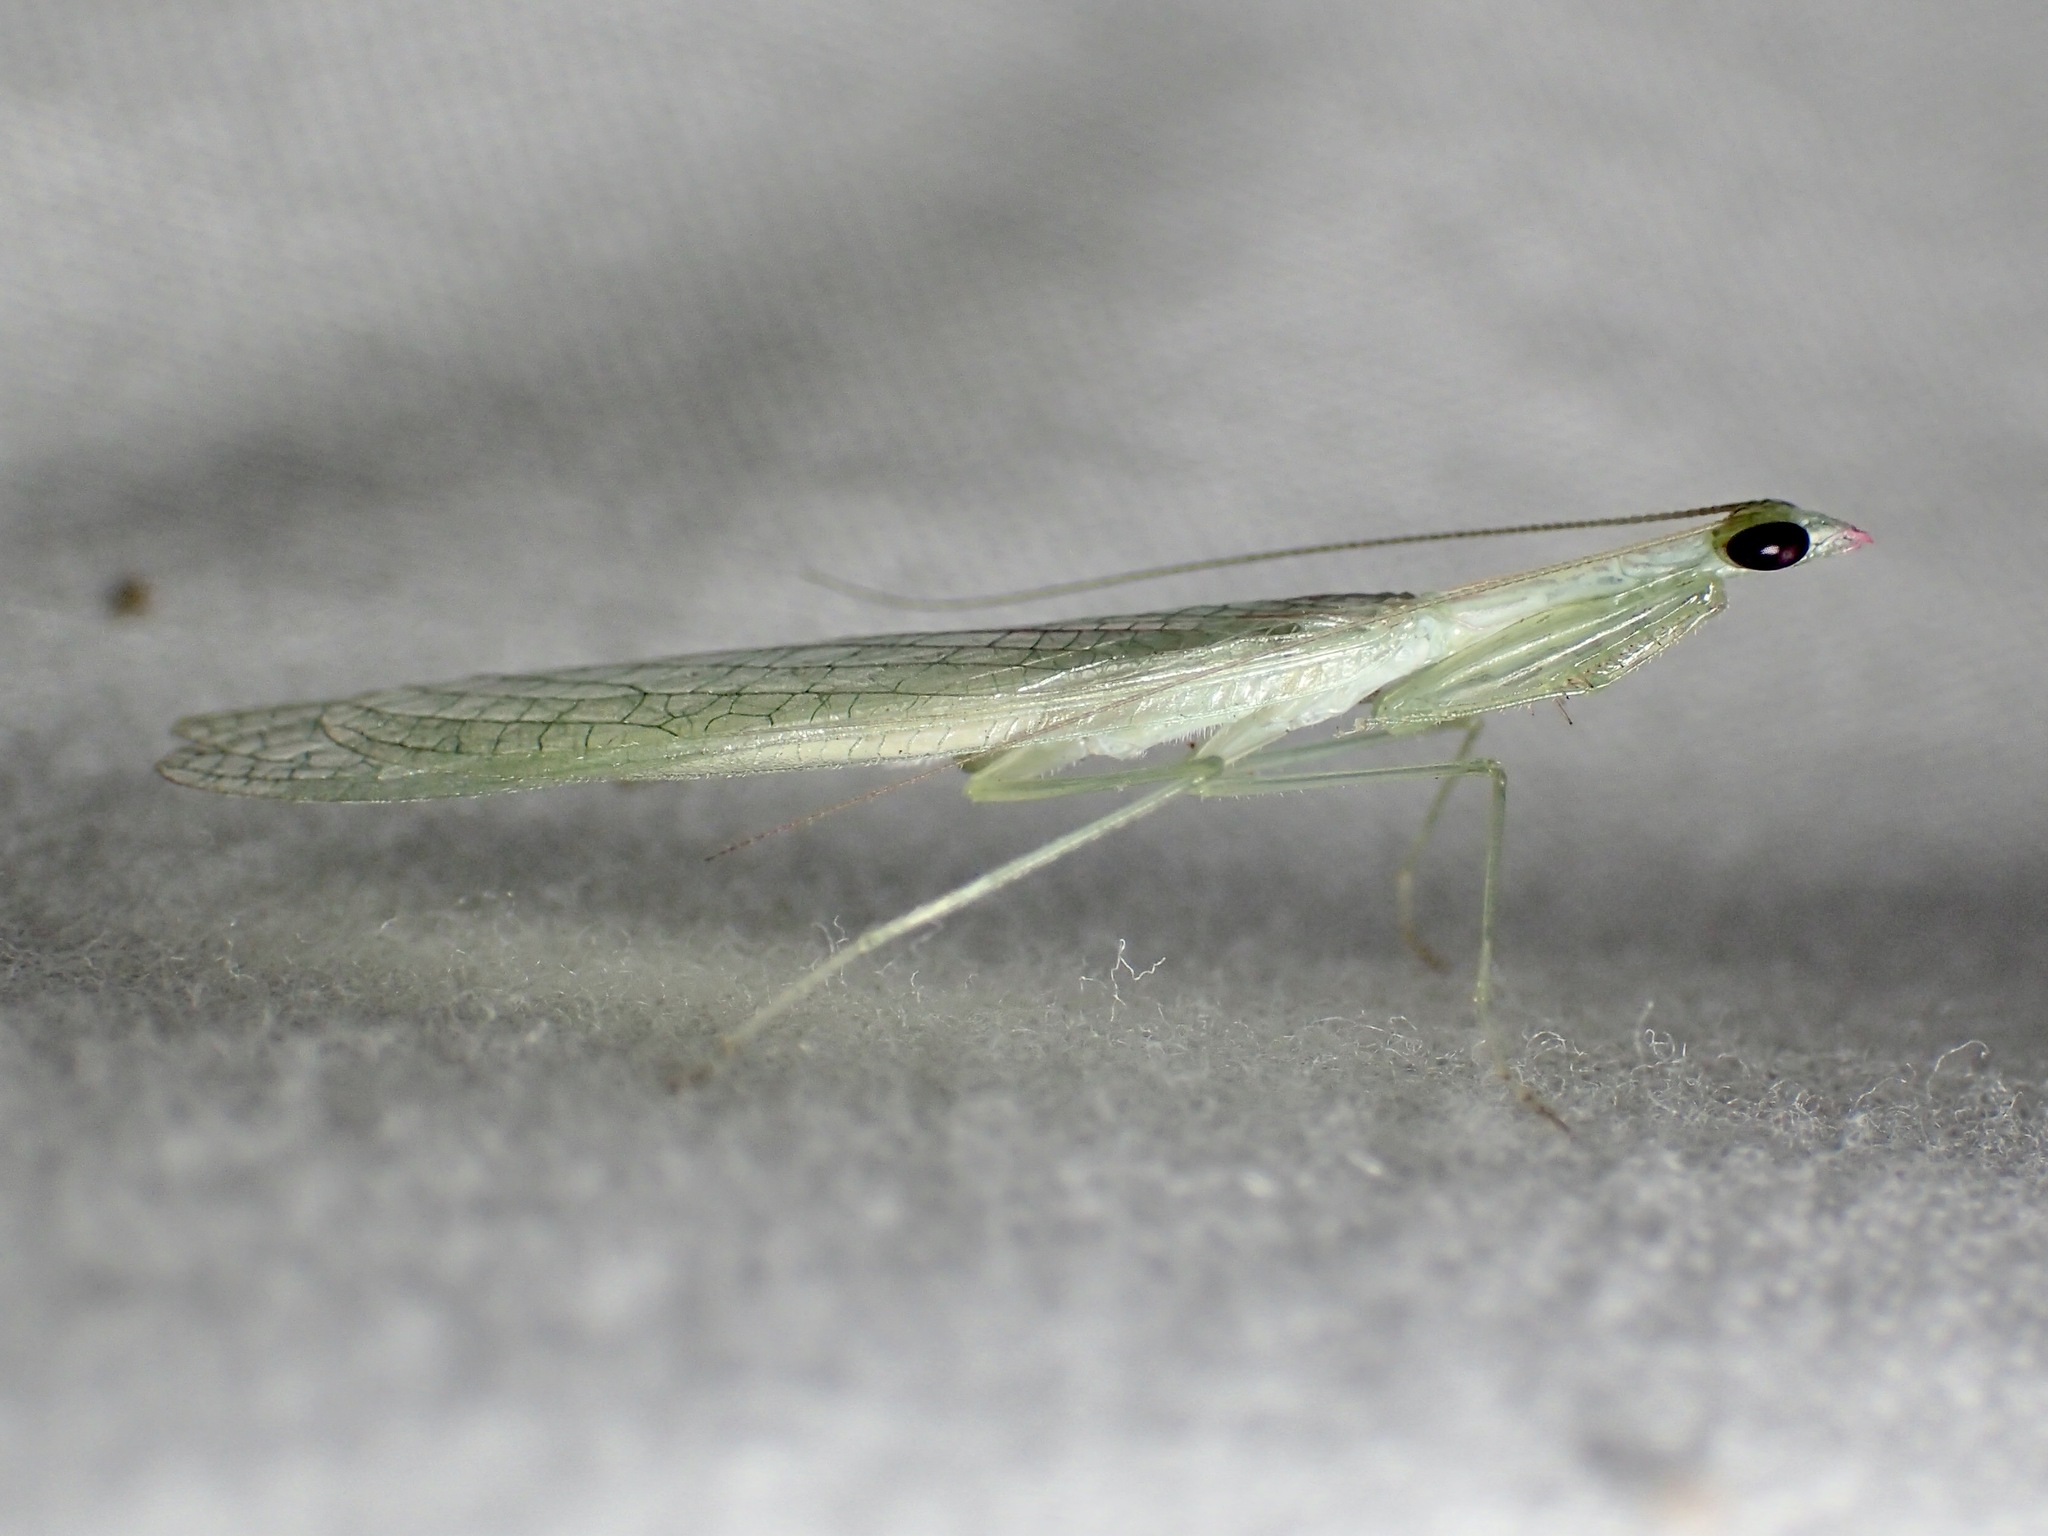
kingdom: Animalia
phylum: Arthropoda
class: Insecta
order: Mantodea
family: Nanomantidae
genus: Kongobatha
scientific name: Kongobatha diademata
